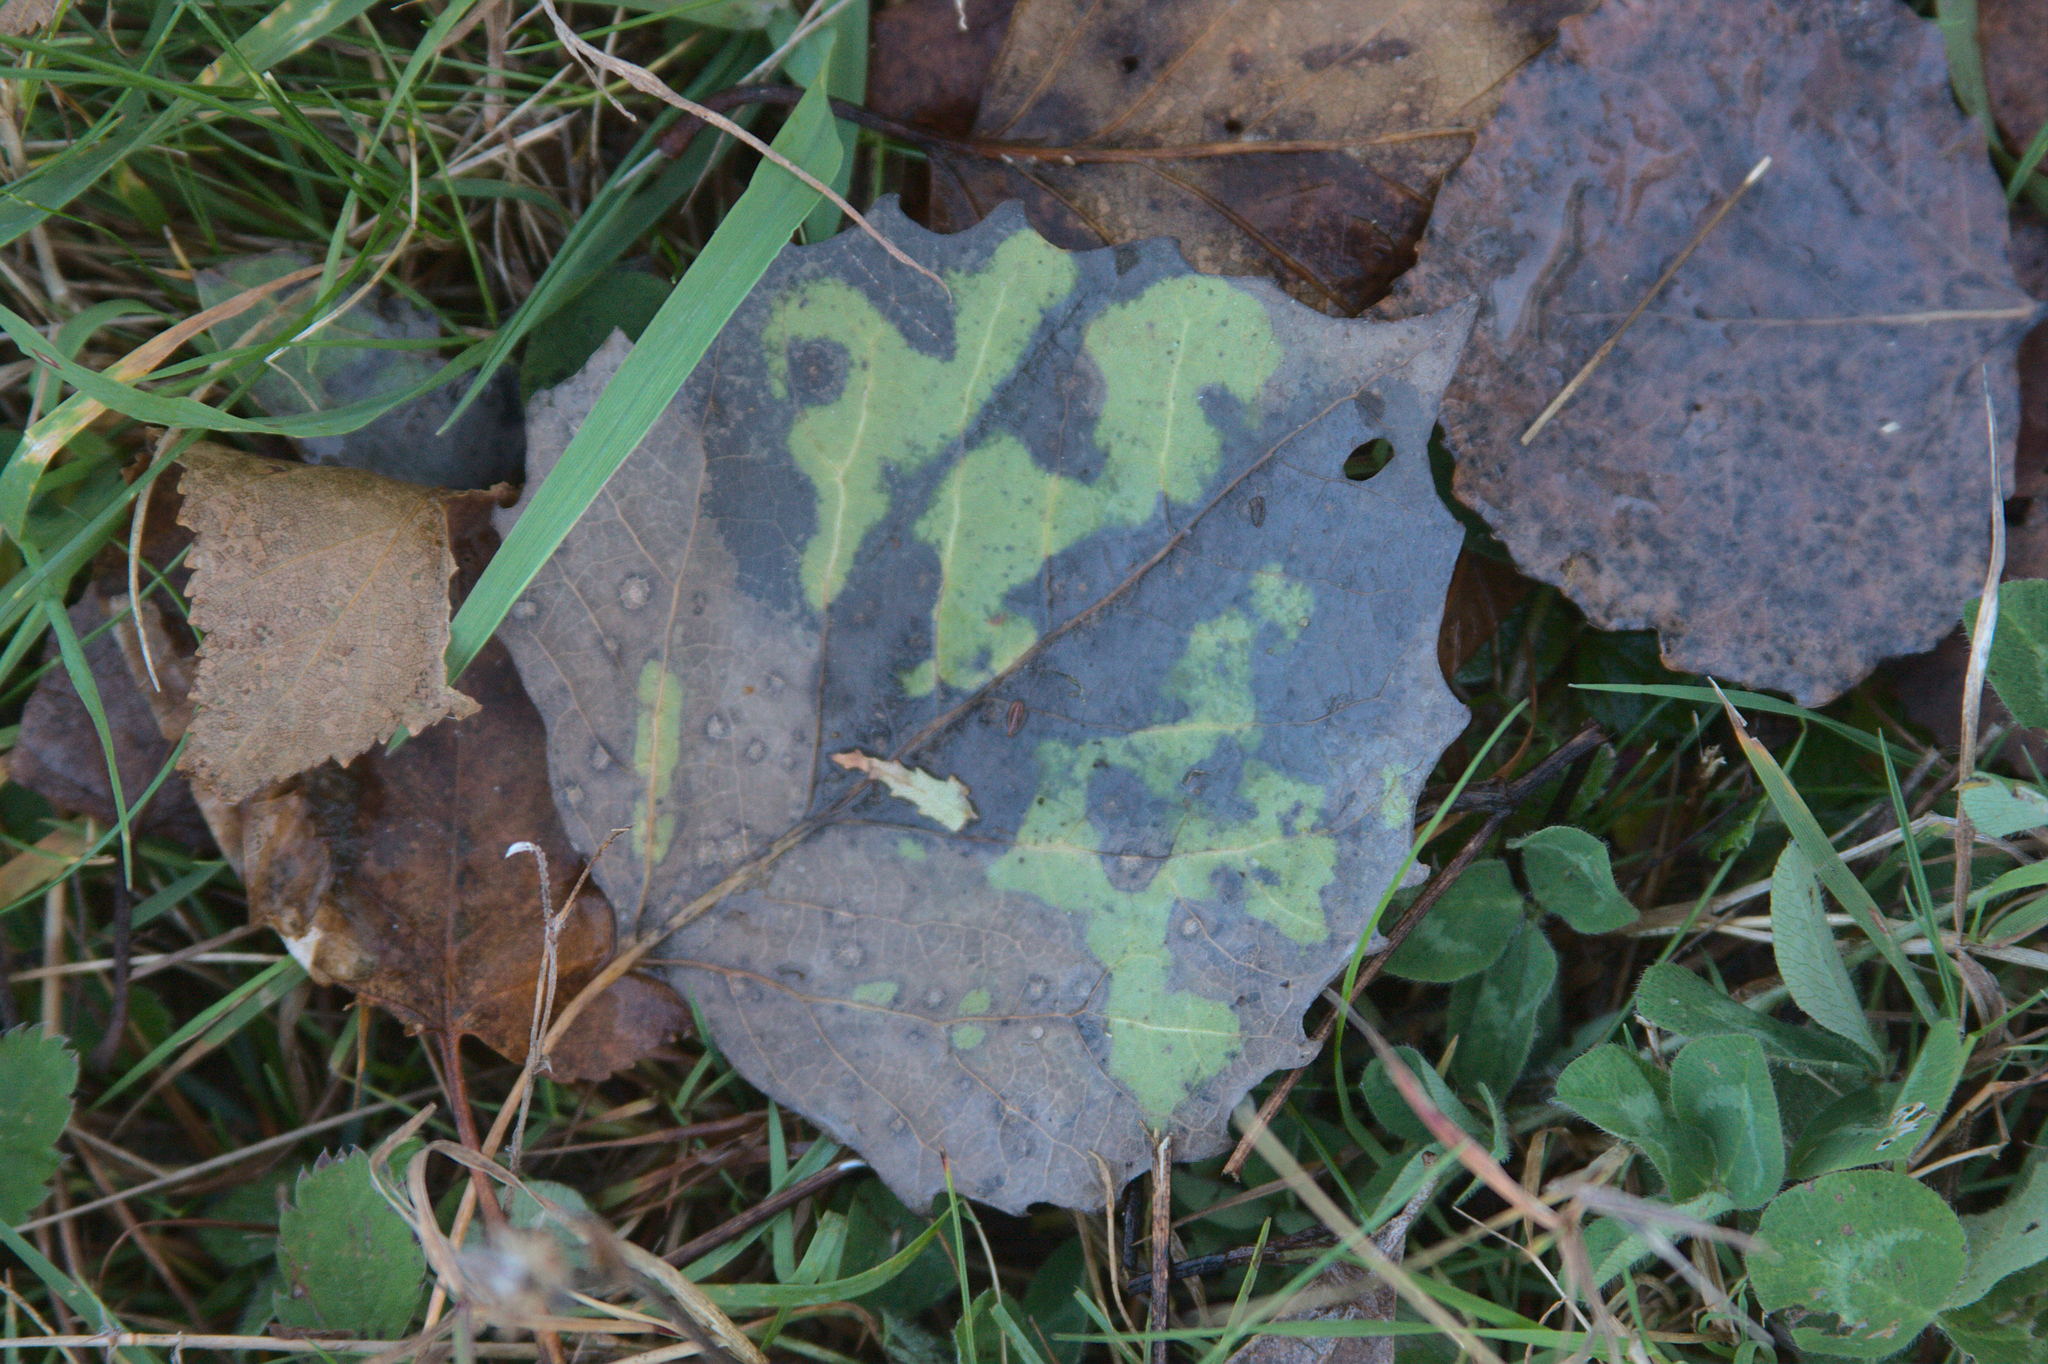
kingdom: Plantae
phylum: Tracheophyta
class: Magnoliopsida
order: Malpighiales
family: Salicaceae
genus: Populus
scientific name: Populus grandidentata
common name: Bigtooth aspen
